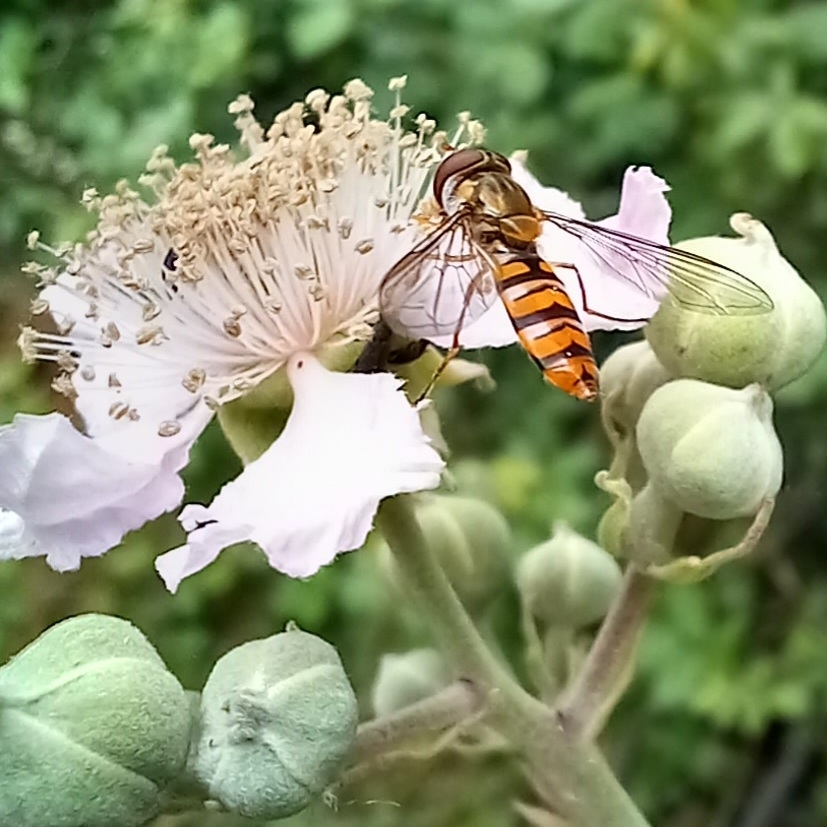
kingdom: Animalia
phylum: Arthropoda
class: Insecta
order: Diptera
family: Syrphidae
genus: Episyrphus
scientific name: Episyrphus balteatus
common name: Marmalade hoverfly
